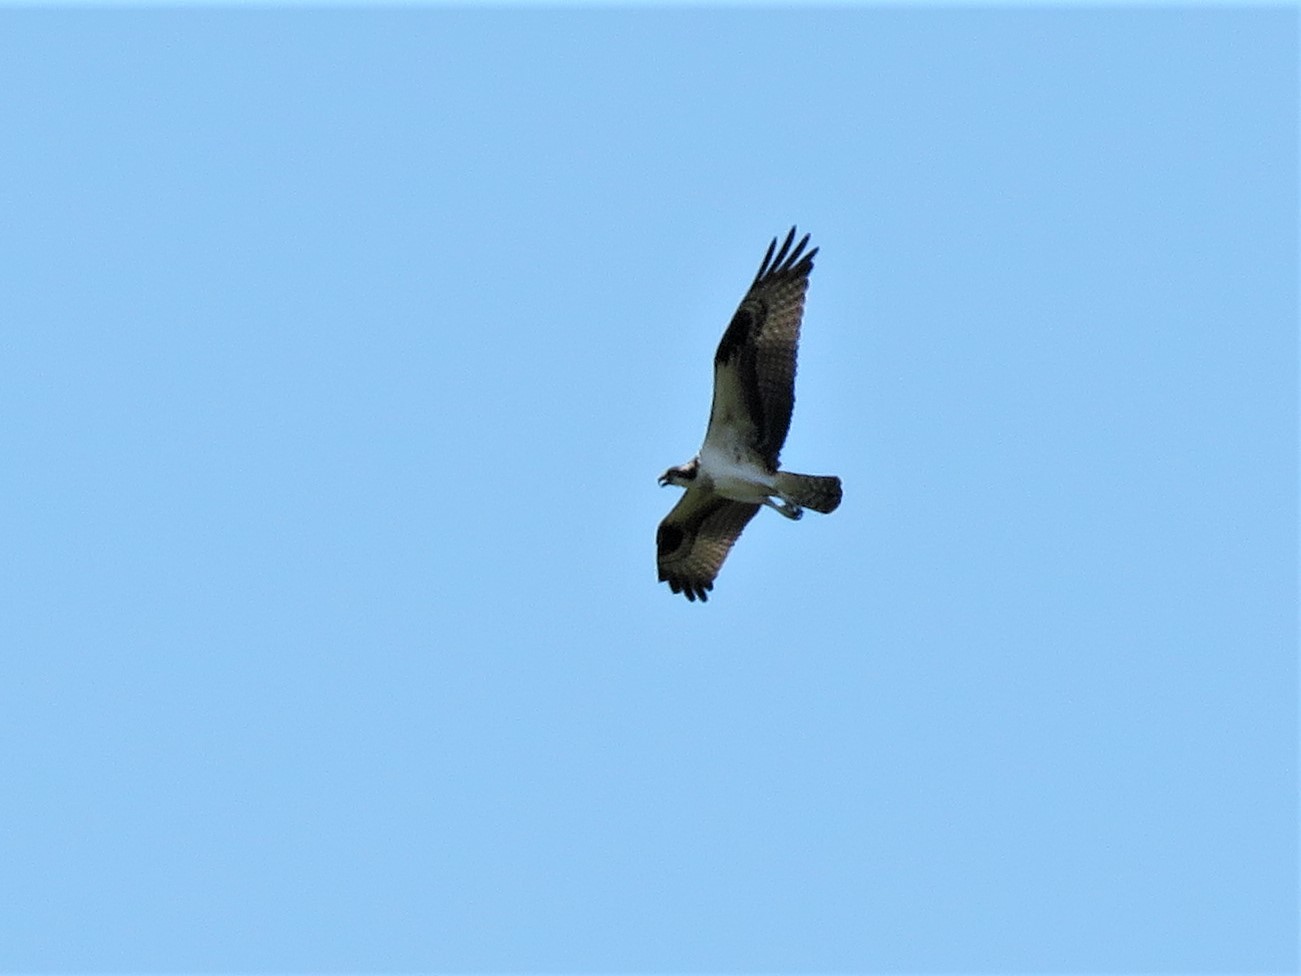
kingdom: Animalia
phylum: Chordata
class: Aves
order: Accipitriformes
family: Pandionidae
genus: Pandion
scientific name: Pandion haliaetus
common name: Osprey
